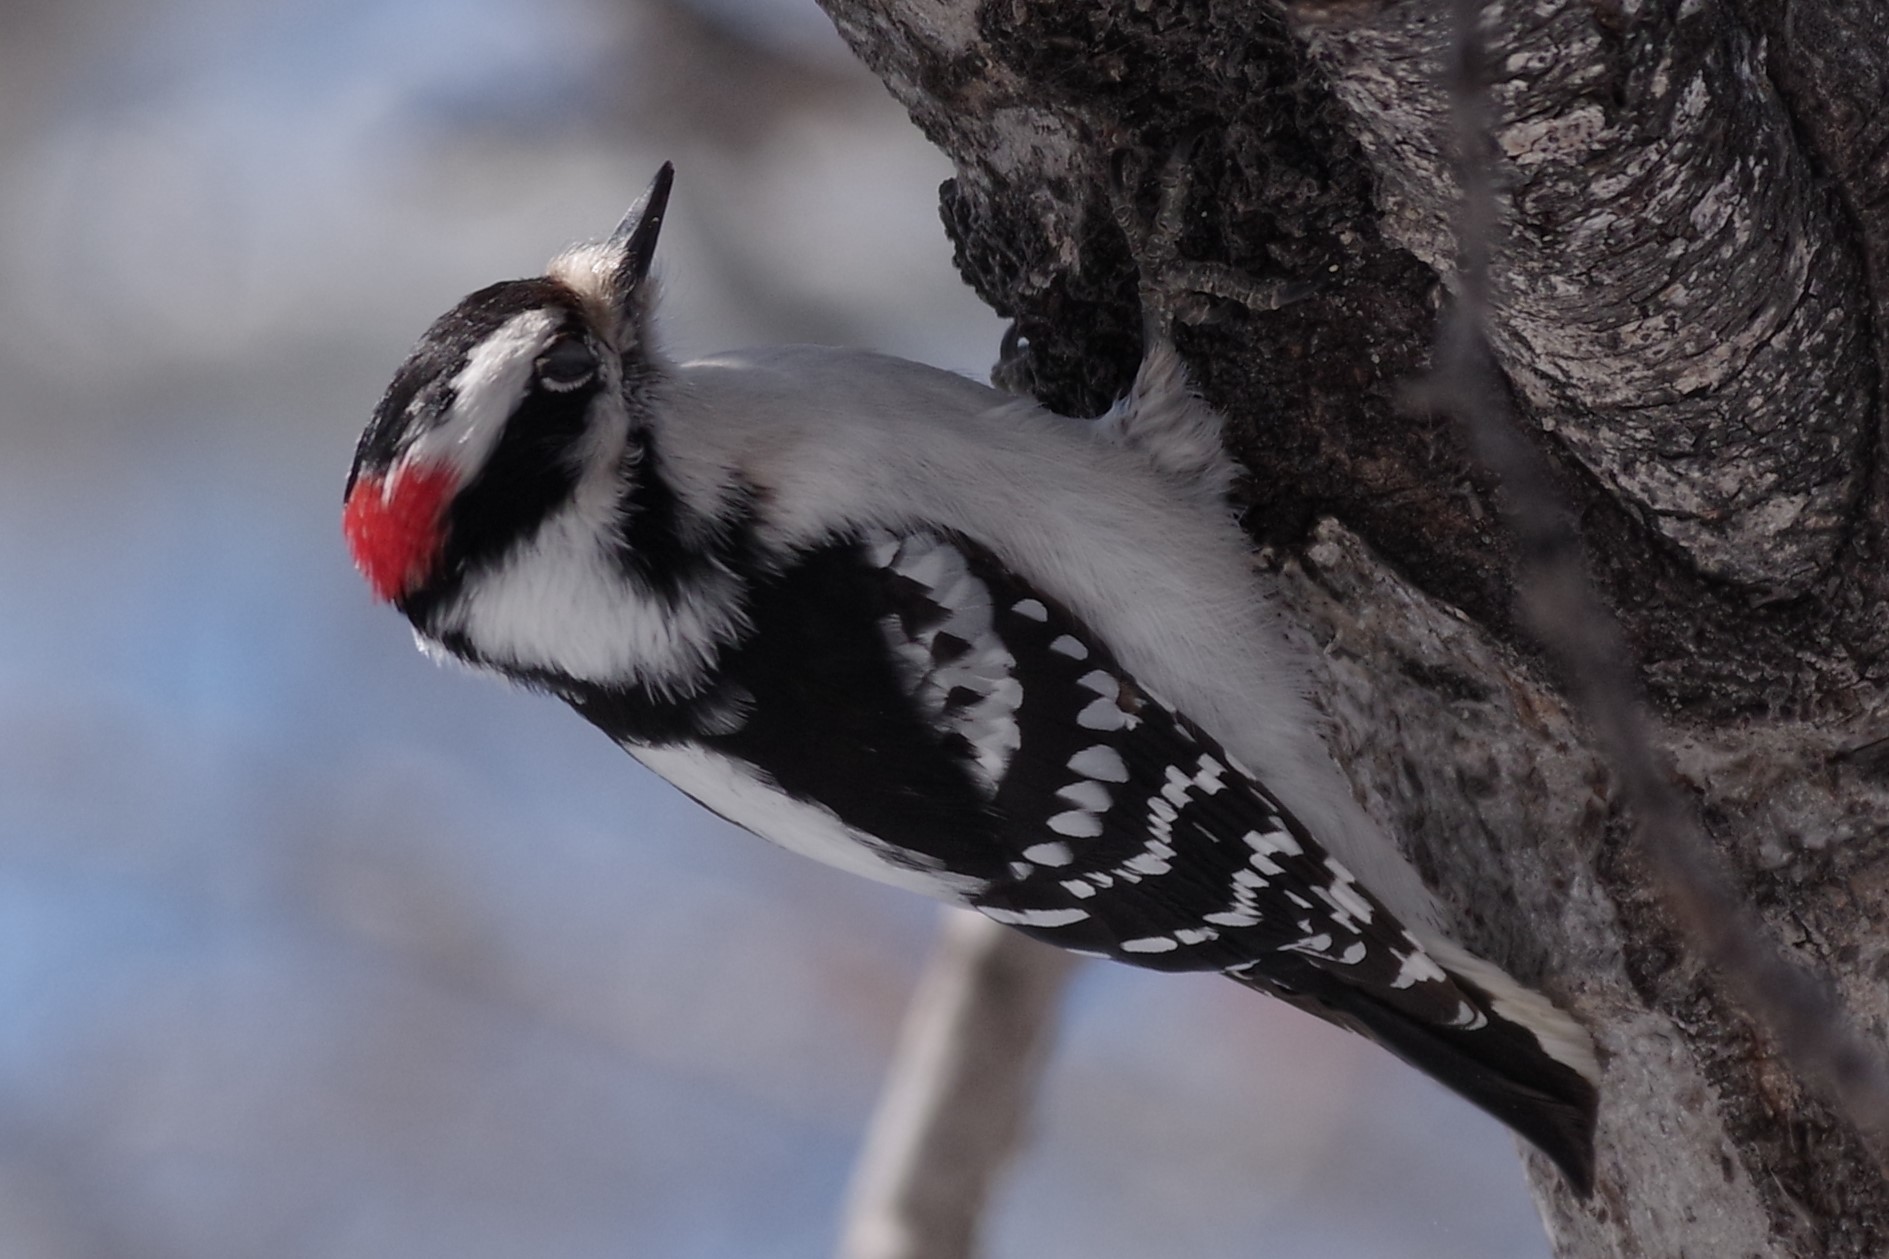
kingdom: Animalia
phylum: Chordata
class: Aves
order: Piciformes
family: Picidae
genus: Dryobates
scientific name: Dryobates pubescens
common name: Downy woodpecker
